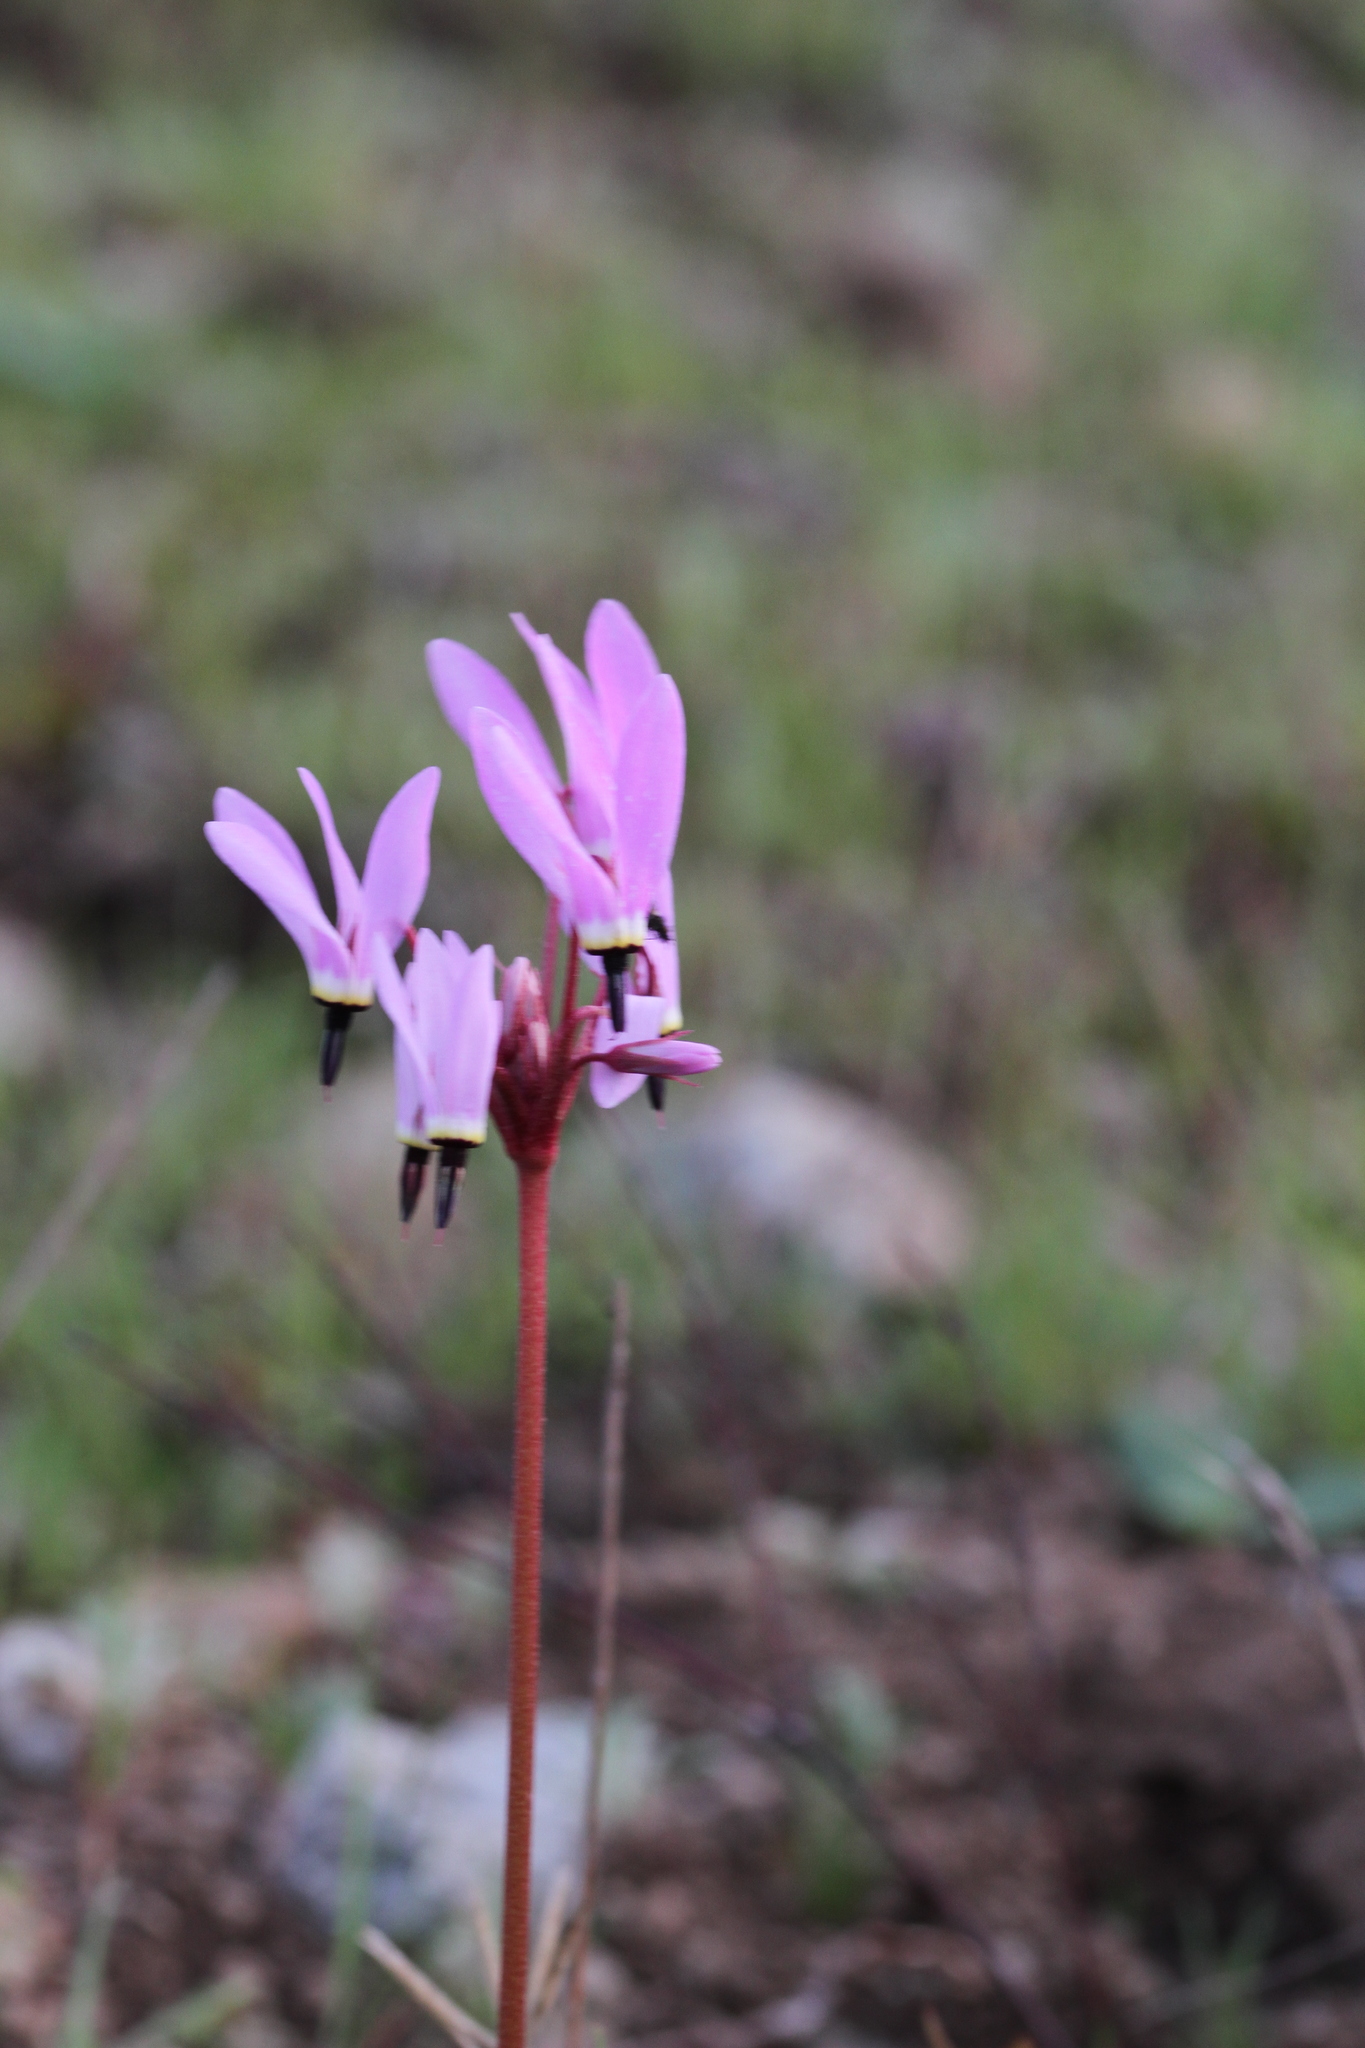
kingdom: Plantae
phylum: Tracheophyta
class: Magnoliopsida
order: Ericales
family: Primulaceae
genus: Dodecatheon
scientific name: Dodecatheon hendersonii
